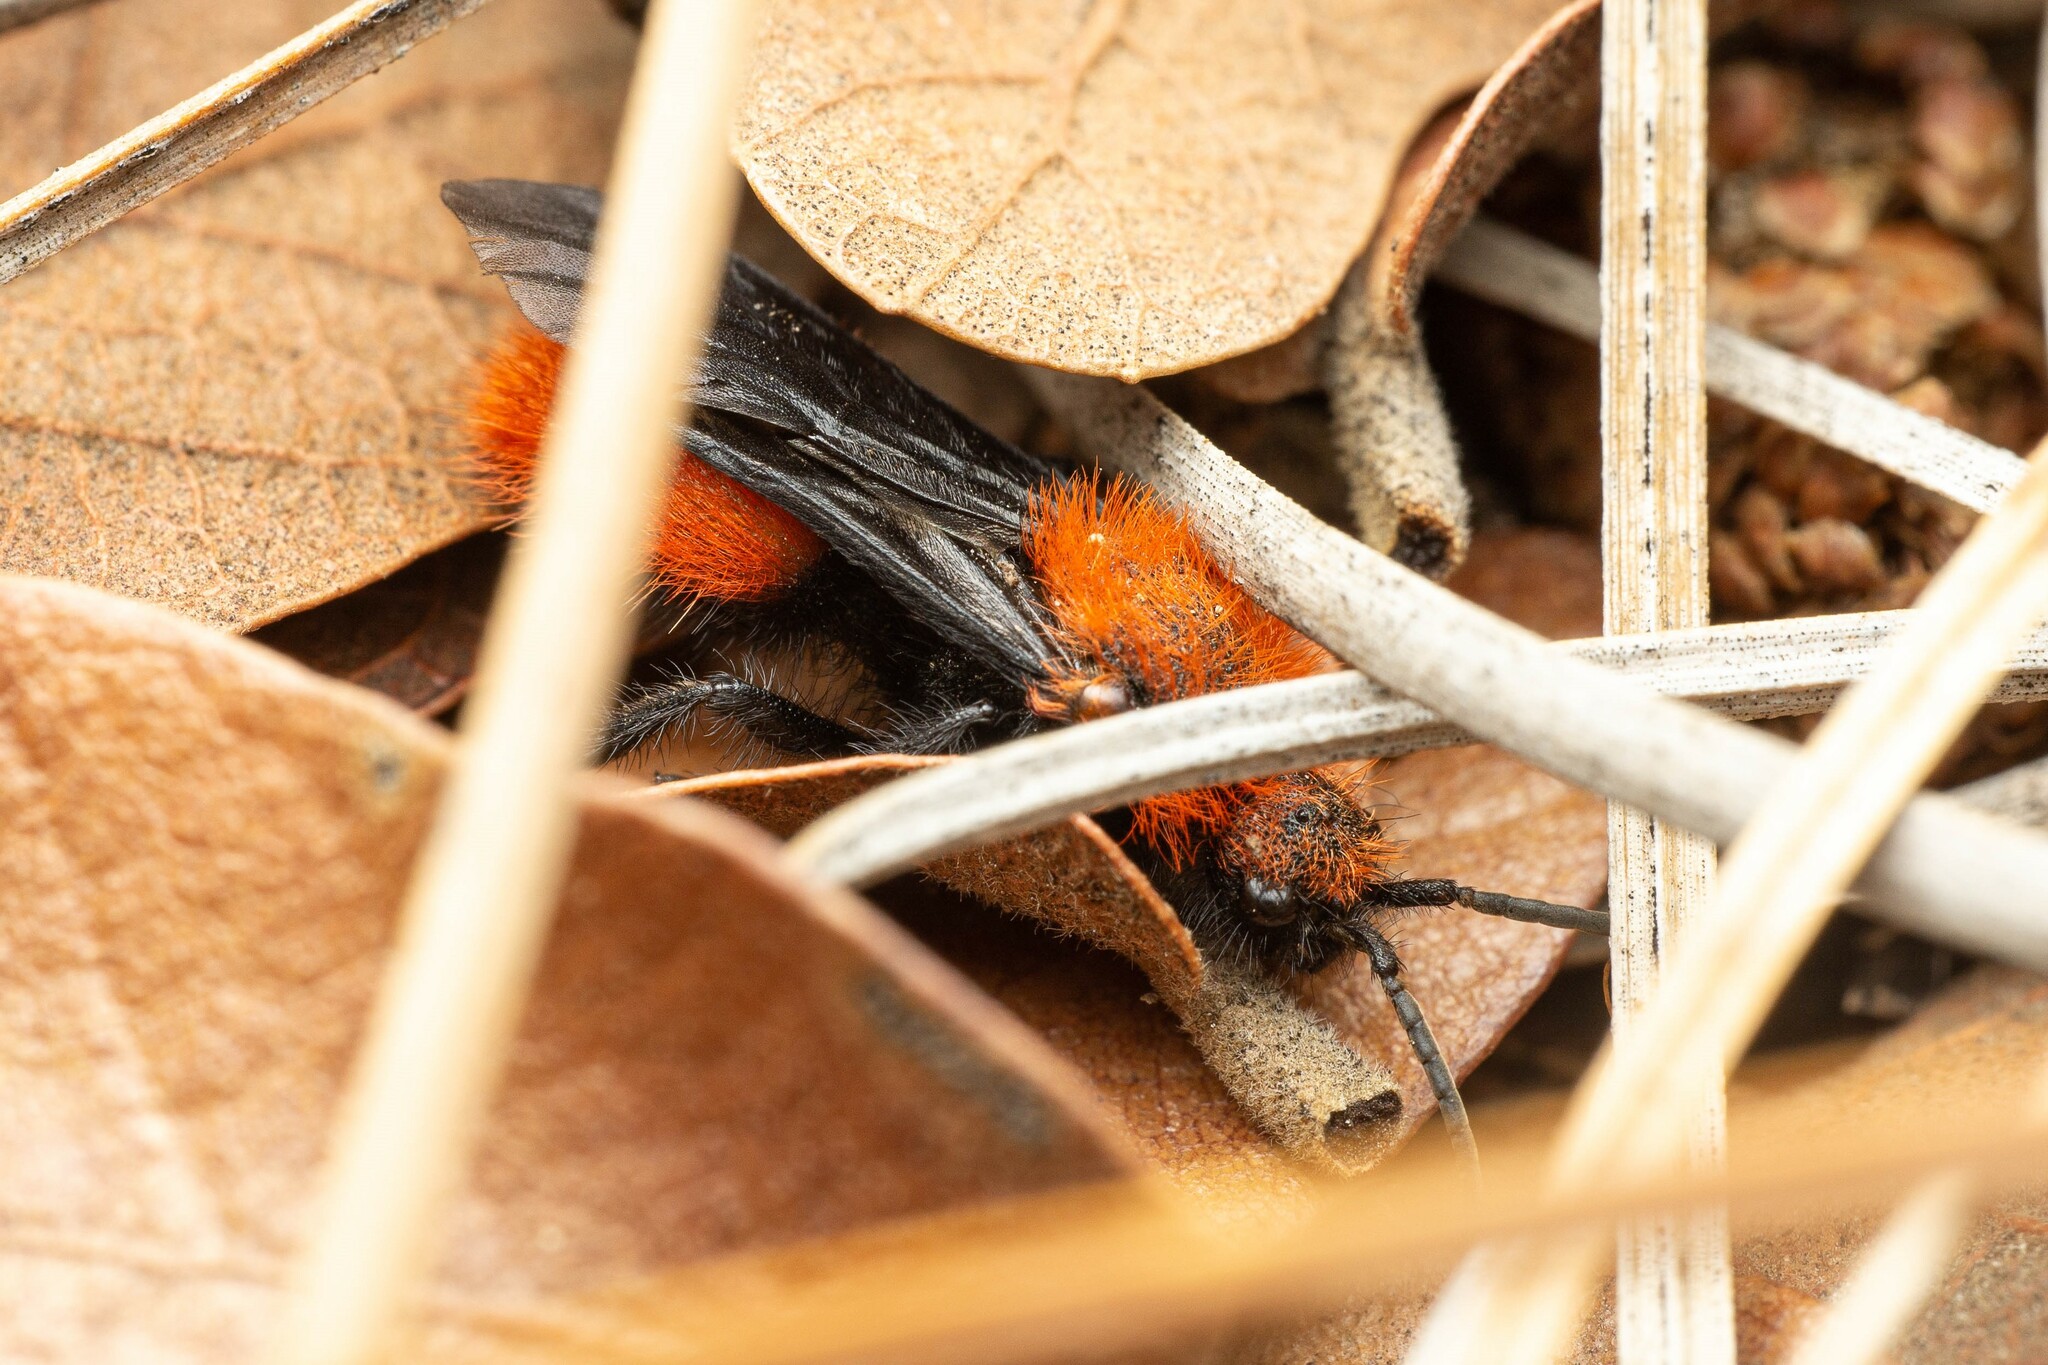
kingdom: Animalia
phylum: Arthropoda
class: Insecta
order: Hymenoptera
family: Mutillidae
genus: Dasymutilla
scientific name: Dasymutilla
